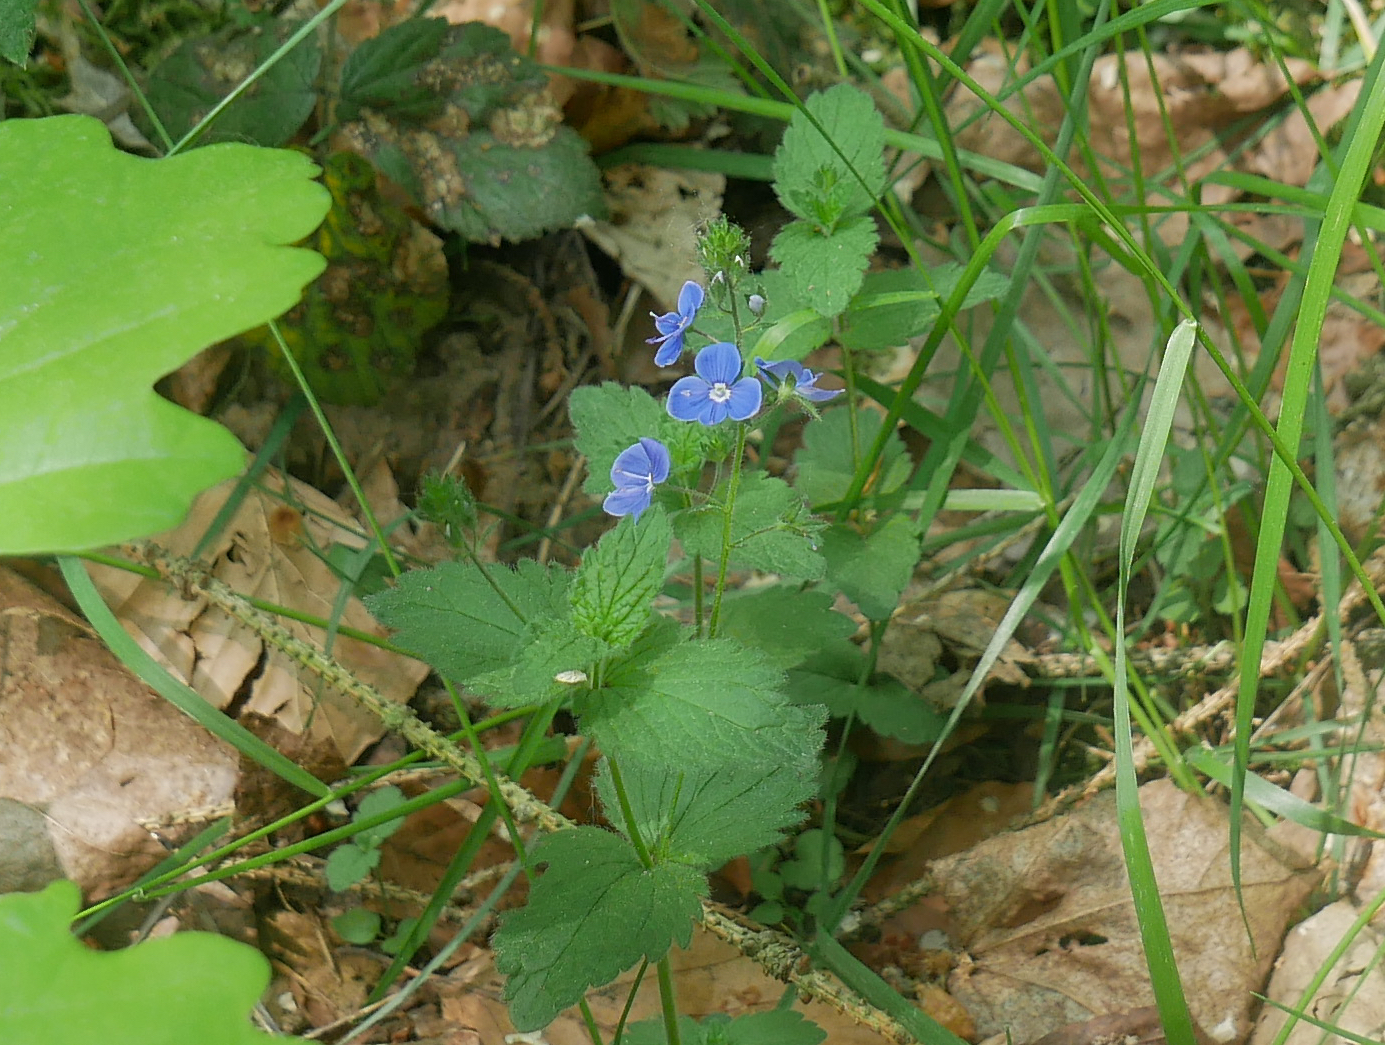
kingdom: Plantae
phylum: Tracheophyta
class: Magnoliopsida
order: Lamiales
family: Plantaginaceae
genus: Veronica
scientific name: Veronica chamaedrys
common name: Germander speedwell
